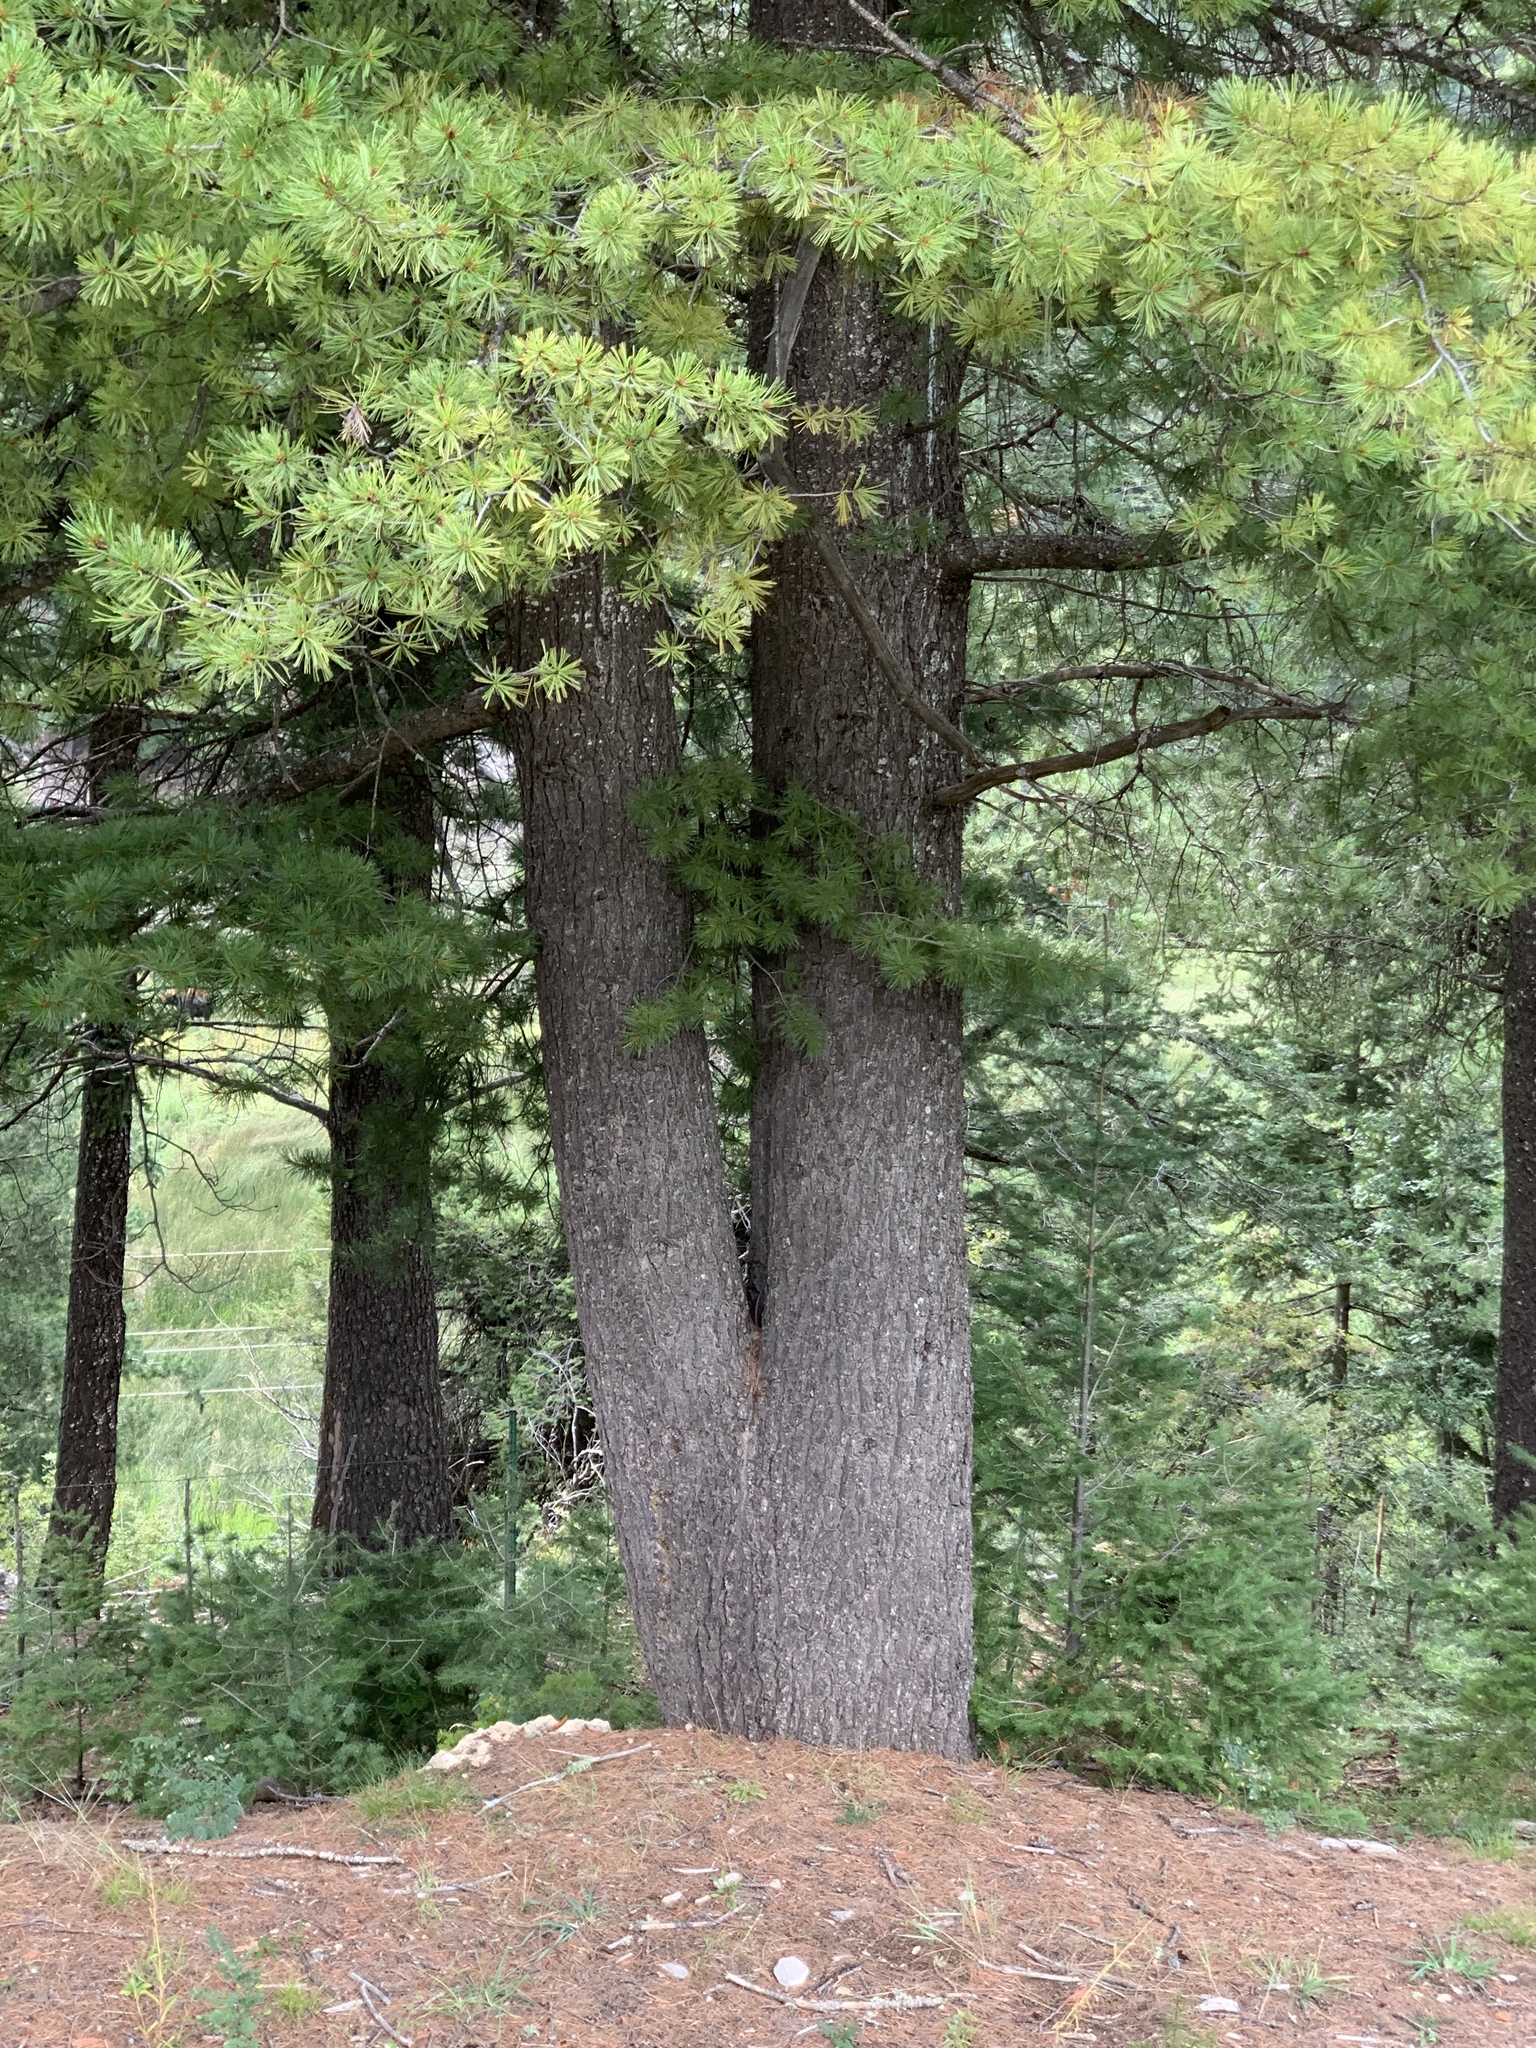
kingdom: Plantae
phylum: Tracheophyta
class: Pinopsida
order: Pinales
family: Pinaceae
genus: Pinus
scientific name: Pinus strobiformis
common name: Southwestern white pine
